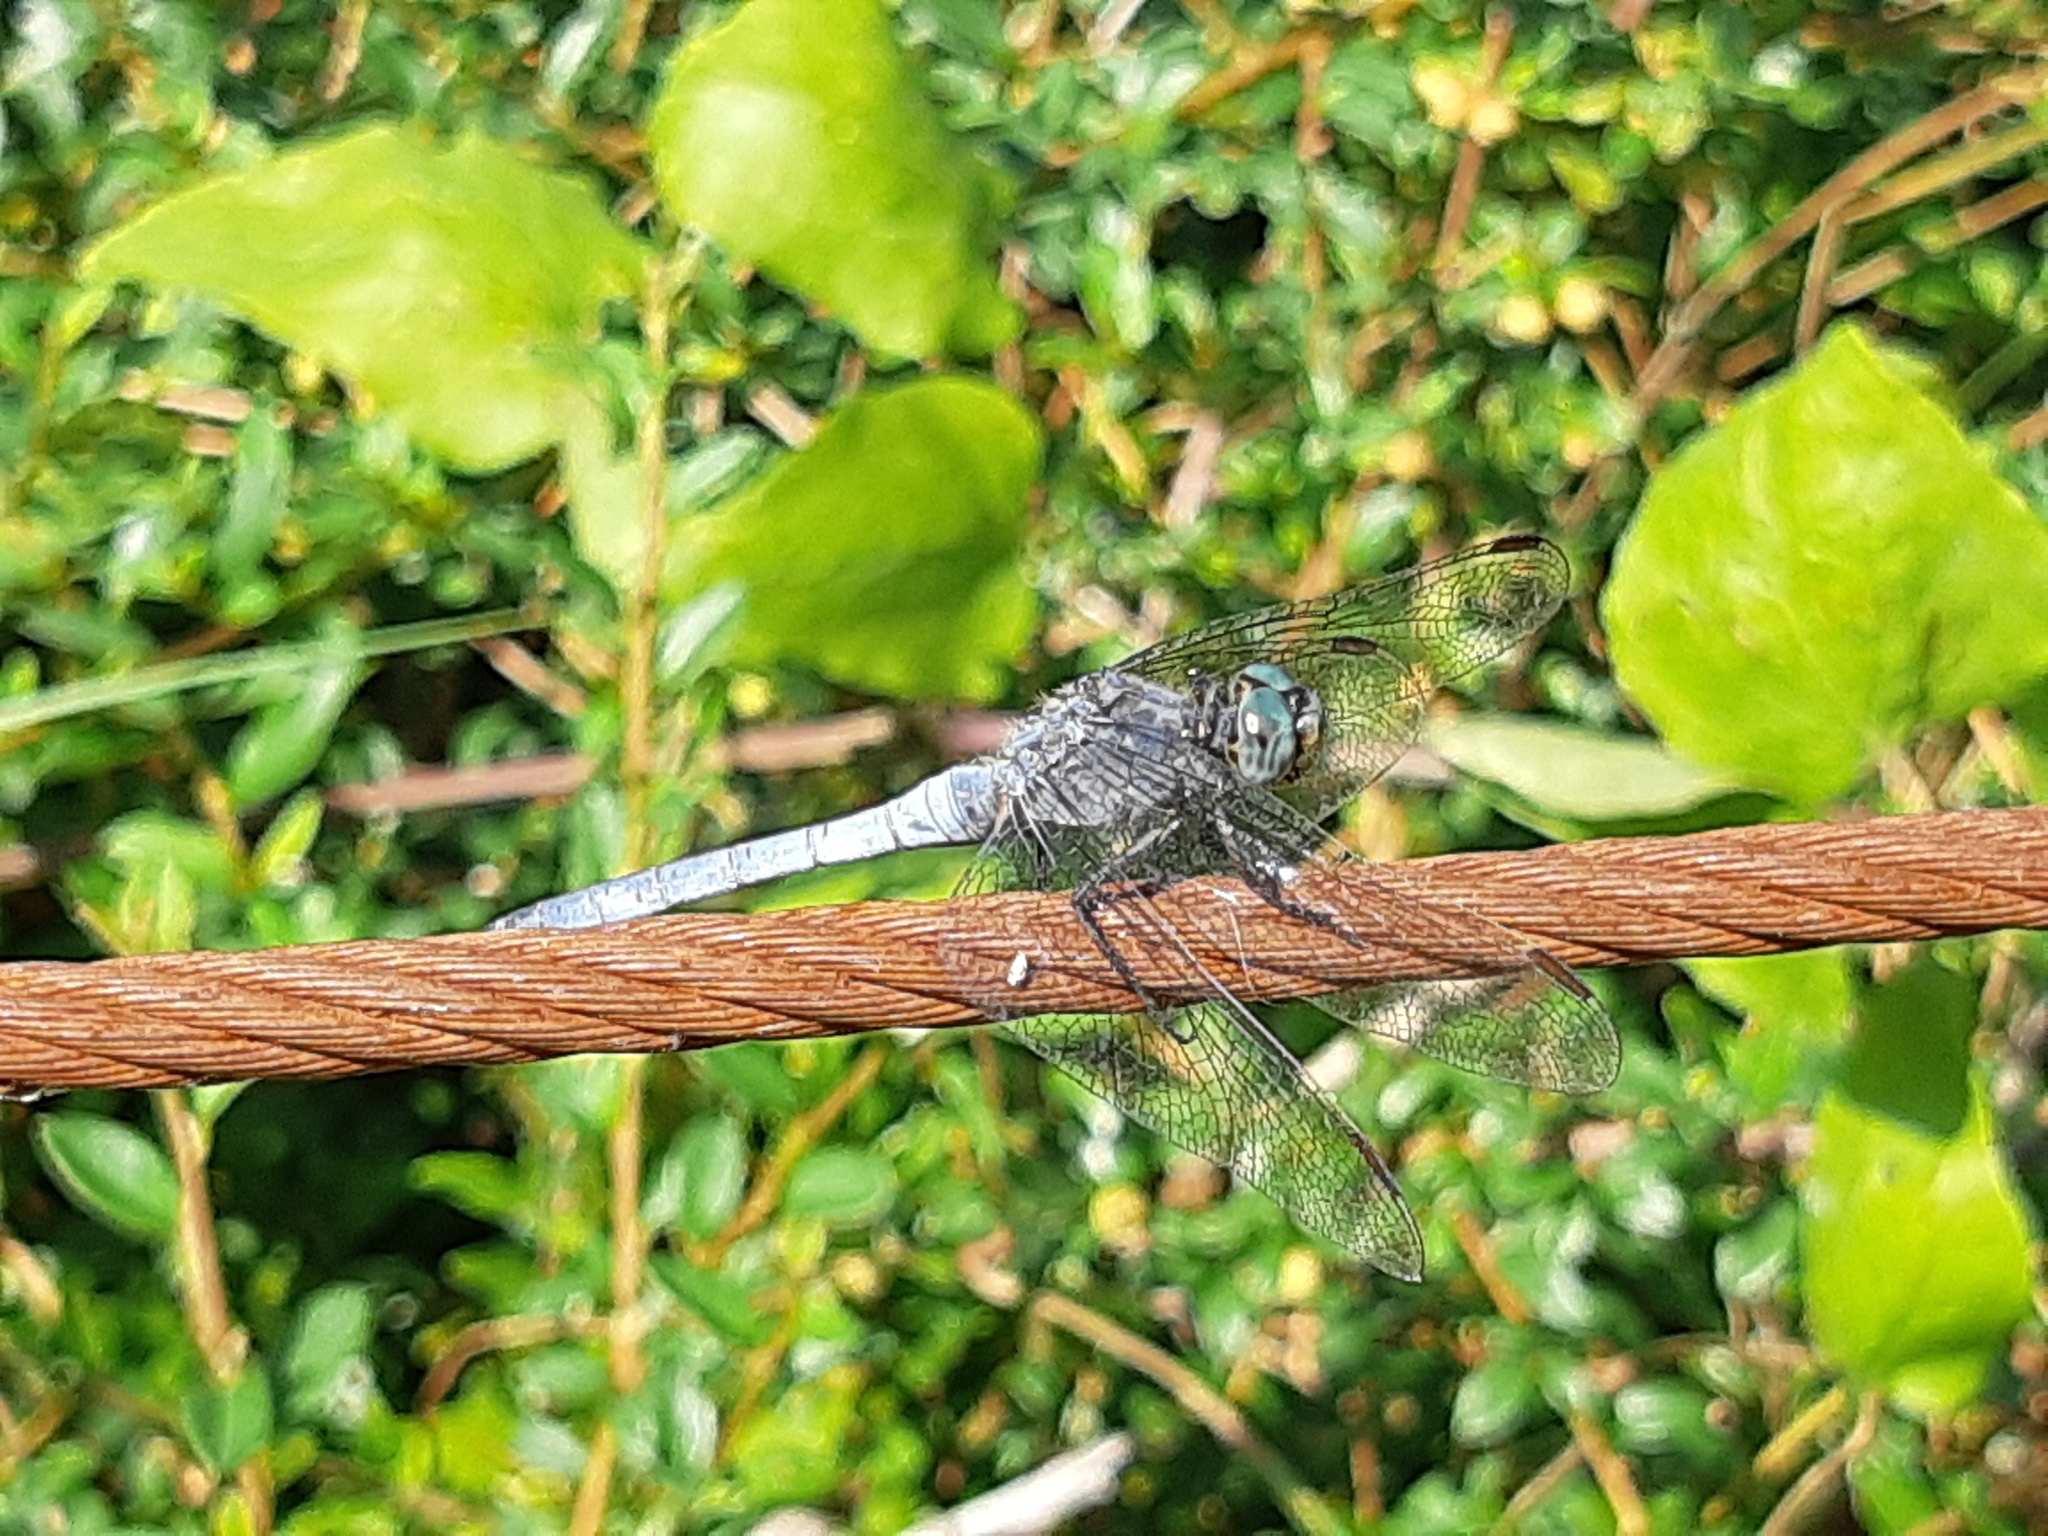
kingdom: Animalia
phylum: Arthropoda
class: Insecta
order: Odonata
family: Libellulidae
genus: Orthetrum
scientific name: Orthetrum coerulescens
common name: Keeled skimmer
